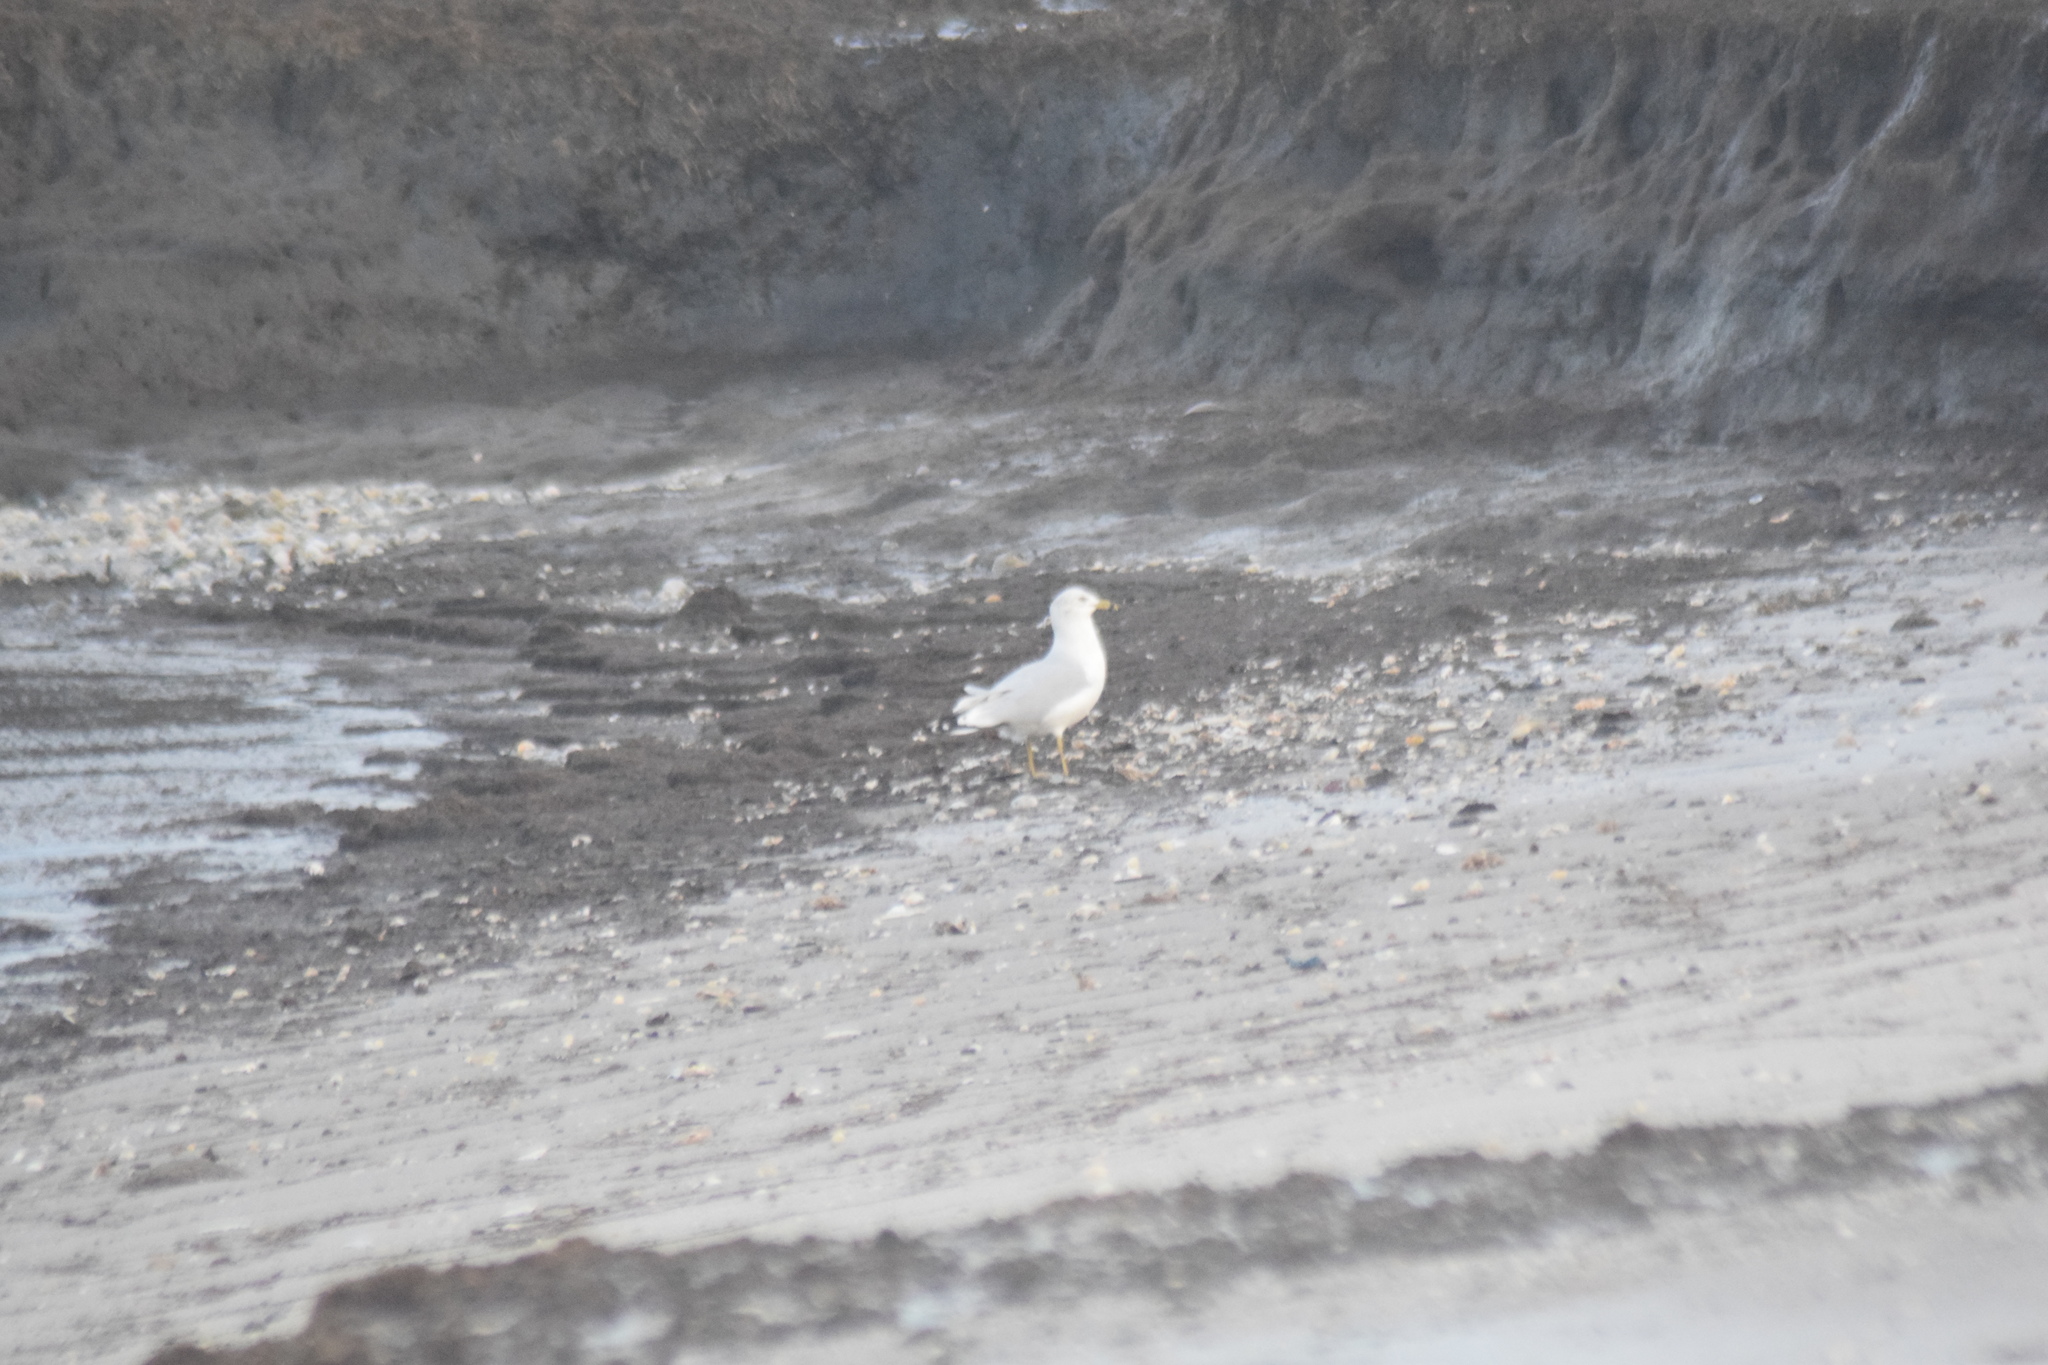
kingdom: Animalia
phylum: Chordata
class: Aves
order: Charadriiformes
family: Laridae
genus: Larus
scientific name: Larus delawarensis
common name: Ring-billed gull
